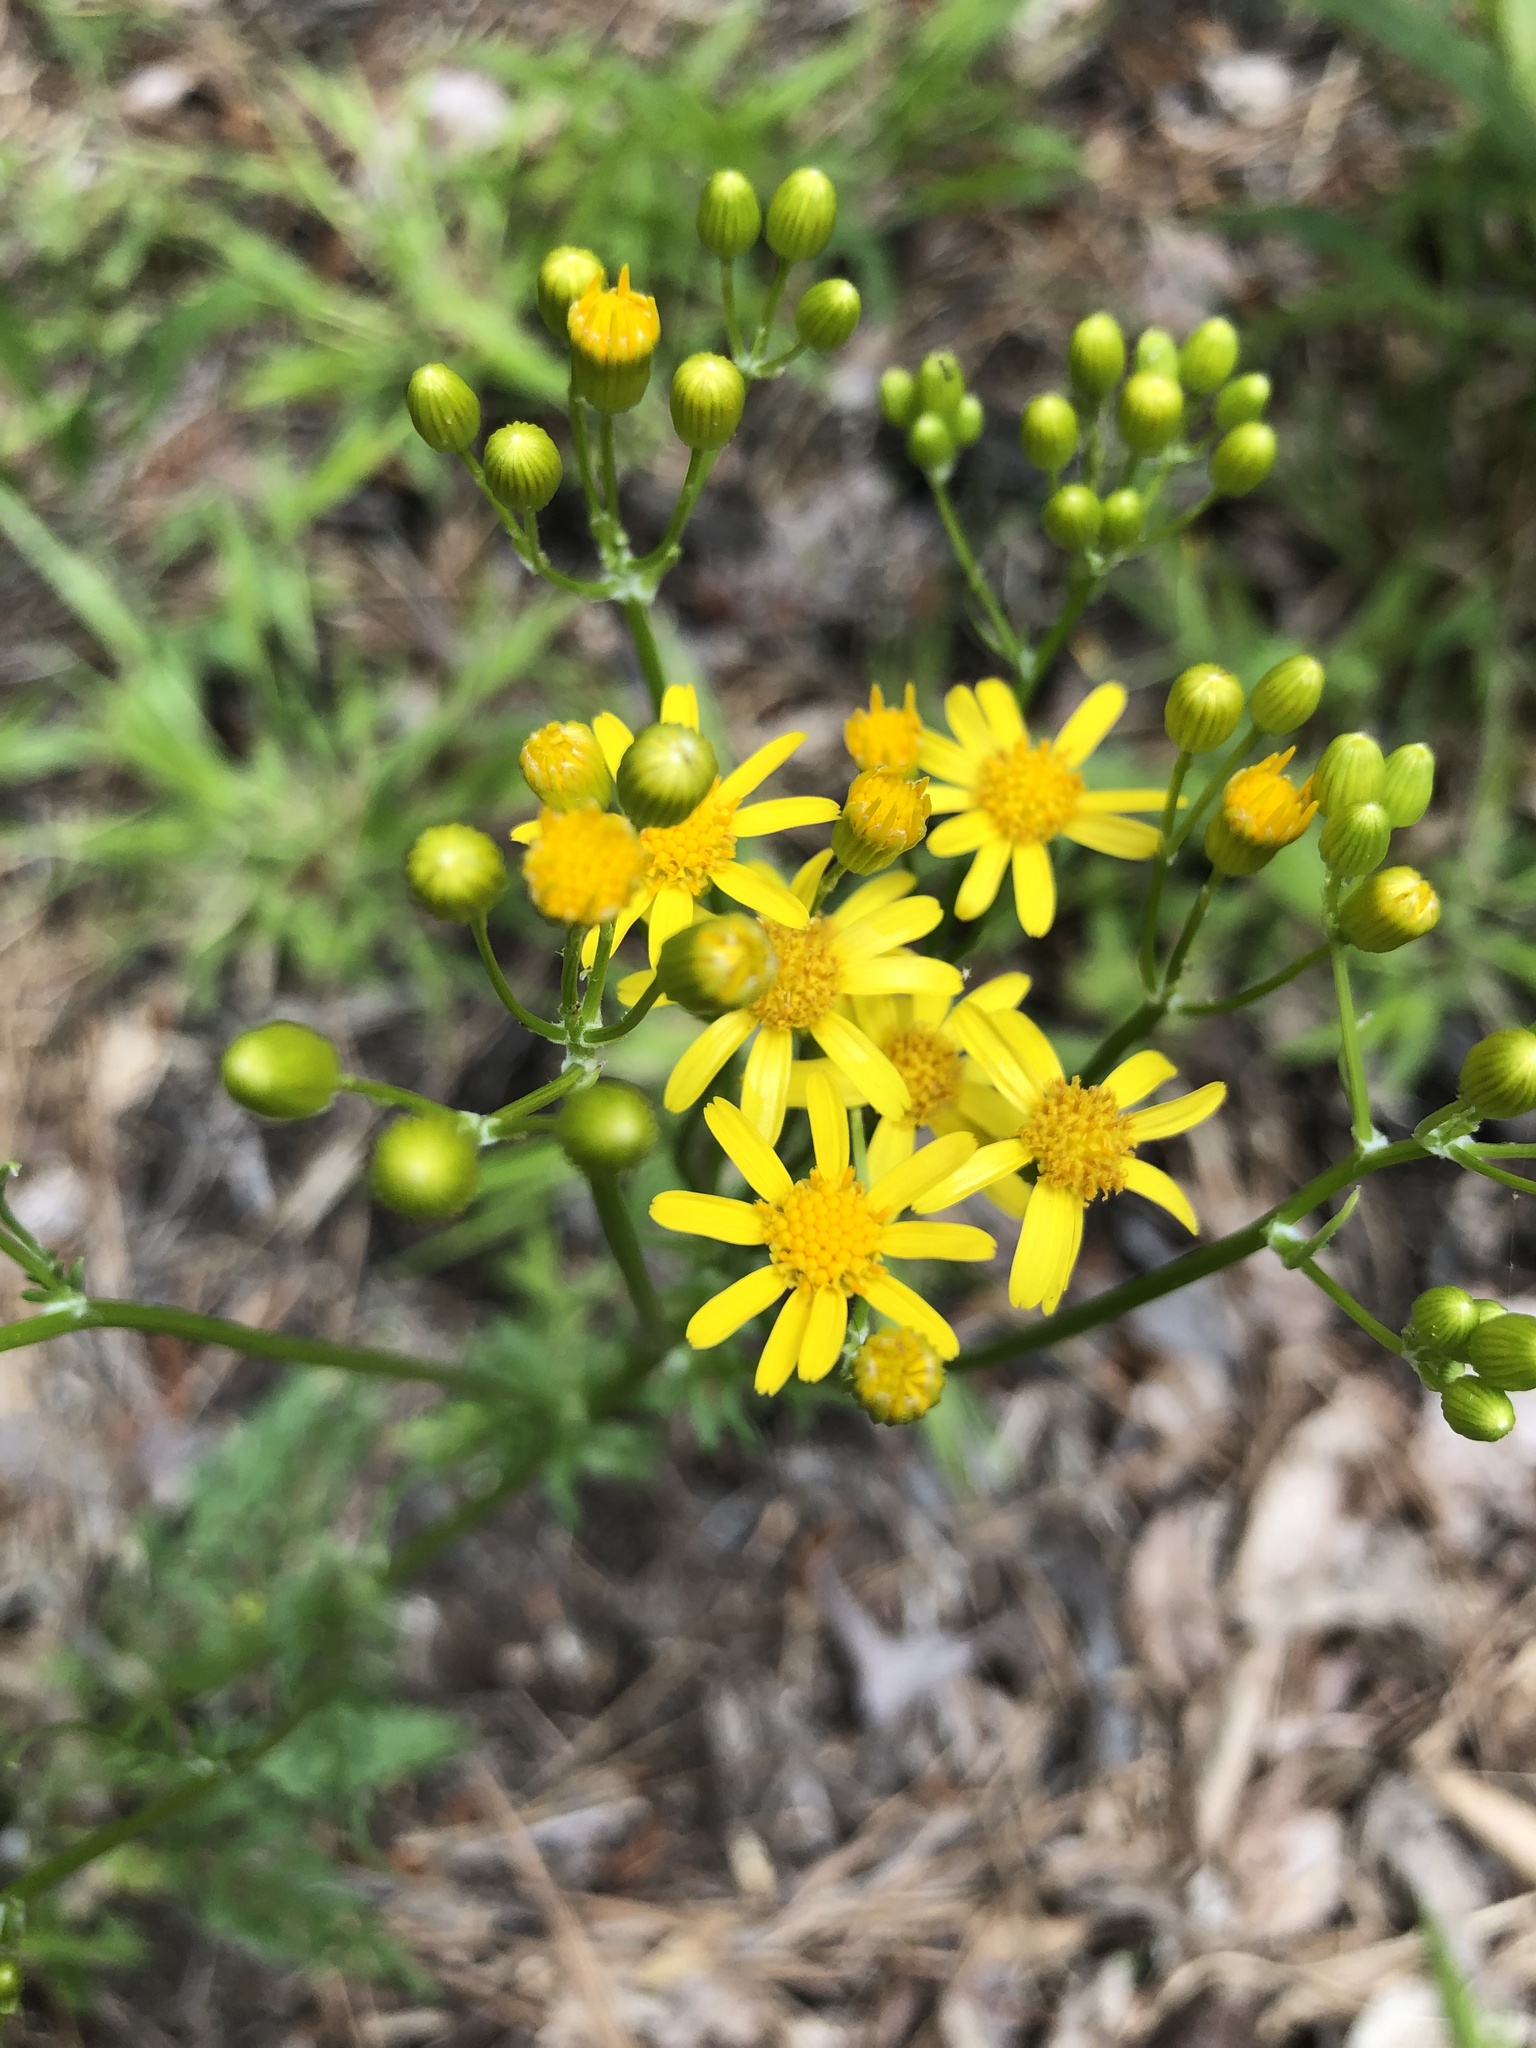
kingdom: Plantae
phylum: Tracheophyta
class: Magnoliopsida
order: Asterales
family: Asteraceae
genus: Packera
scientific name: Packera anonyma
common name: Small ragwort
